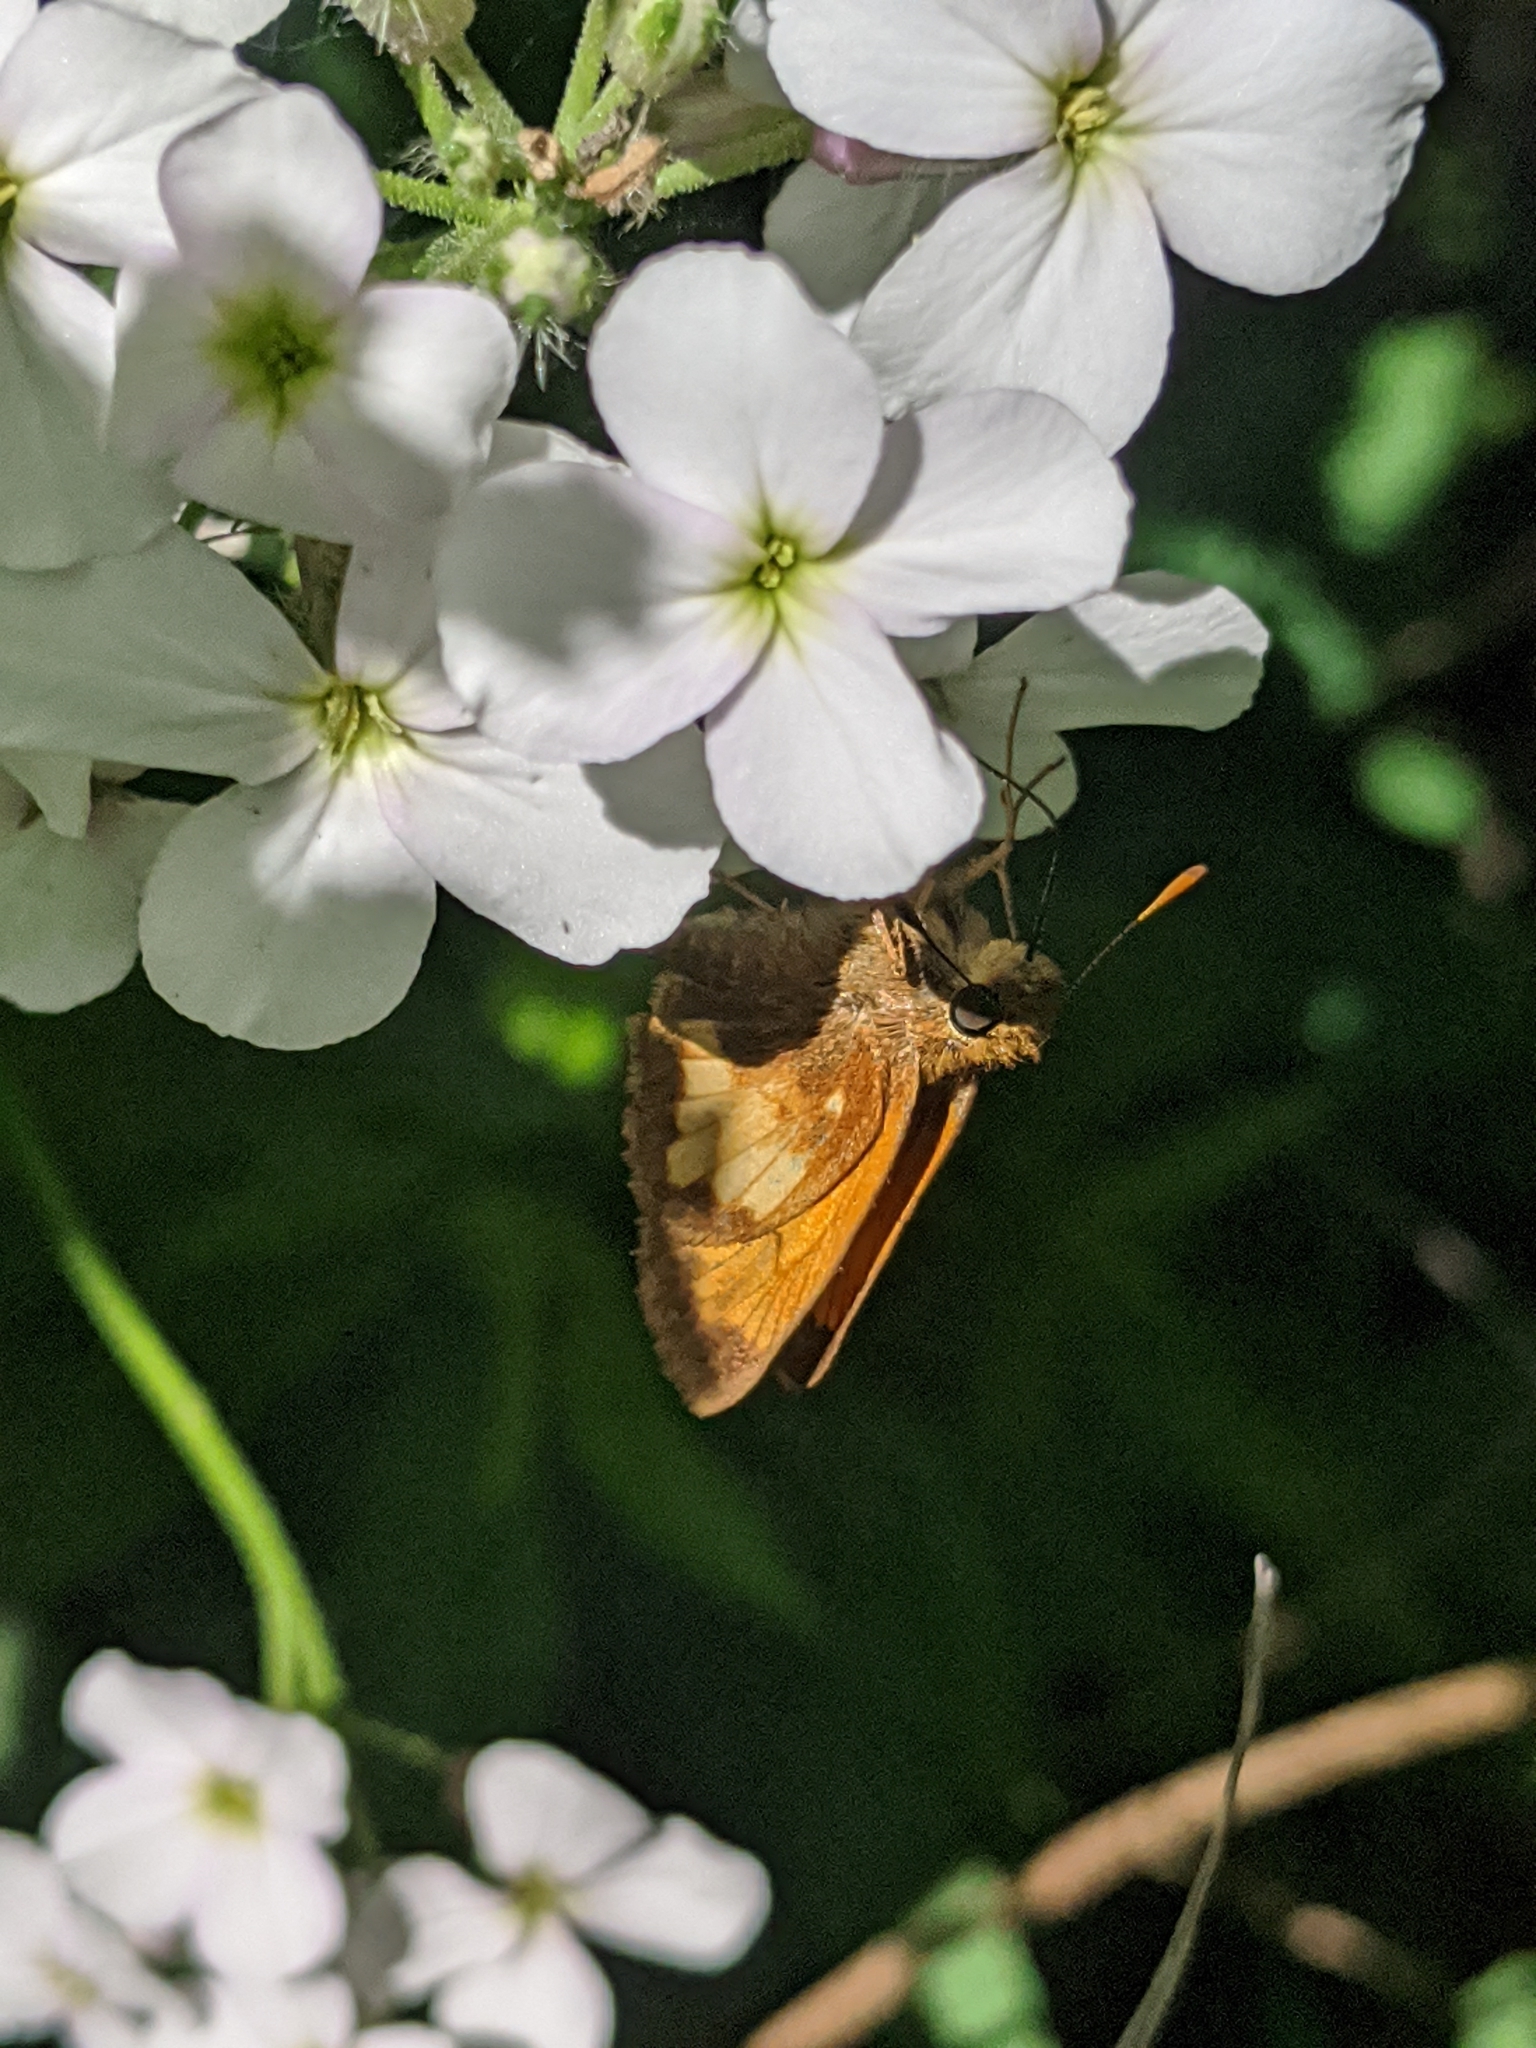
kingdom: Animalia
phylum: Arthropoda
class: Insecta
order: Lepidoptera
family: Hesperiidae
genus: Lon
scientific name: Lon hobomok
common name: Hobomok skipper
